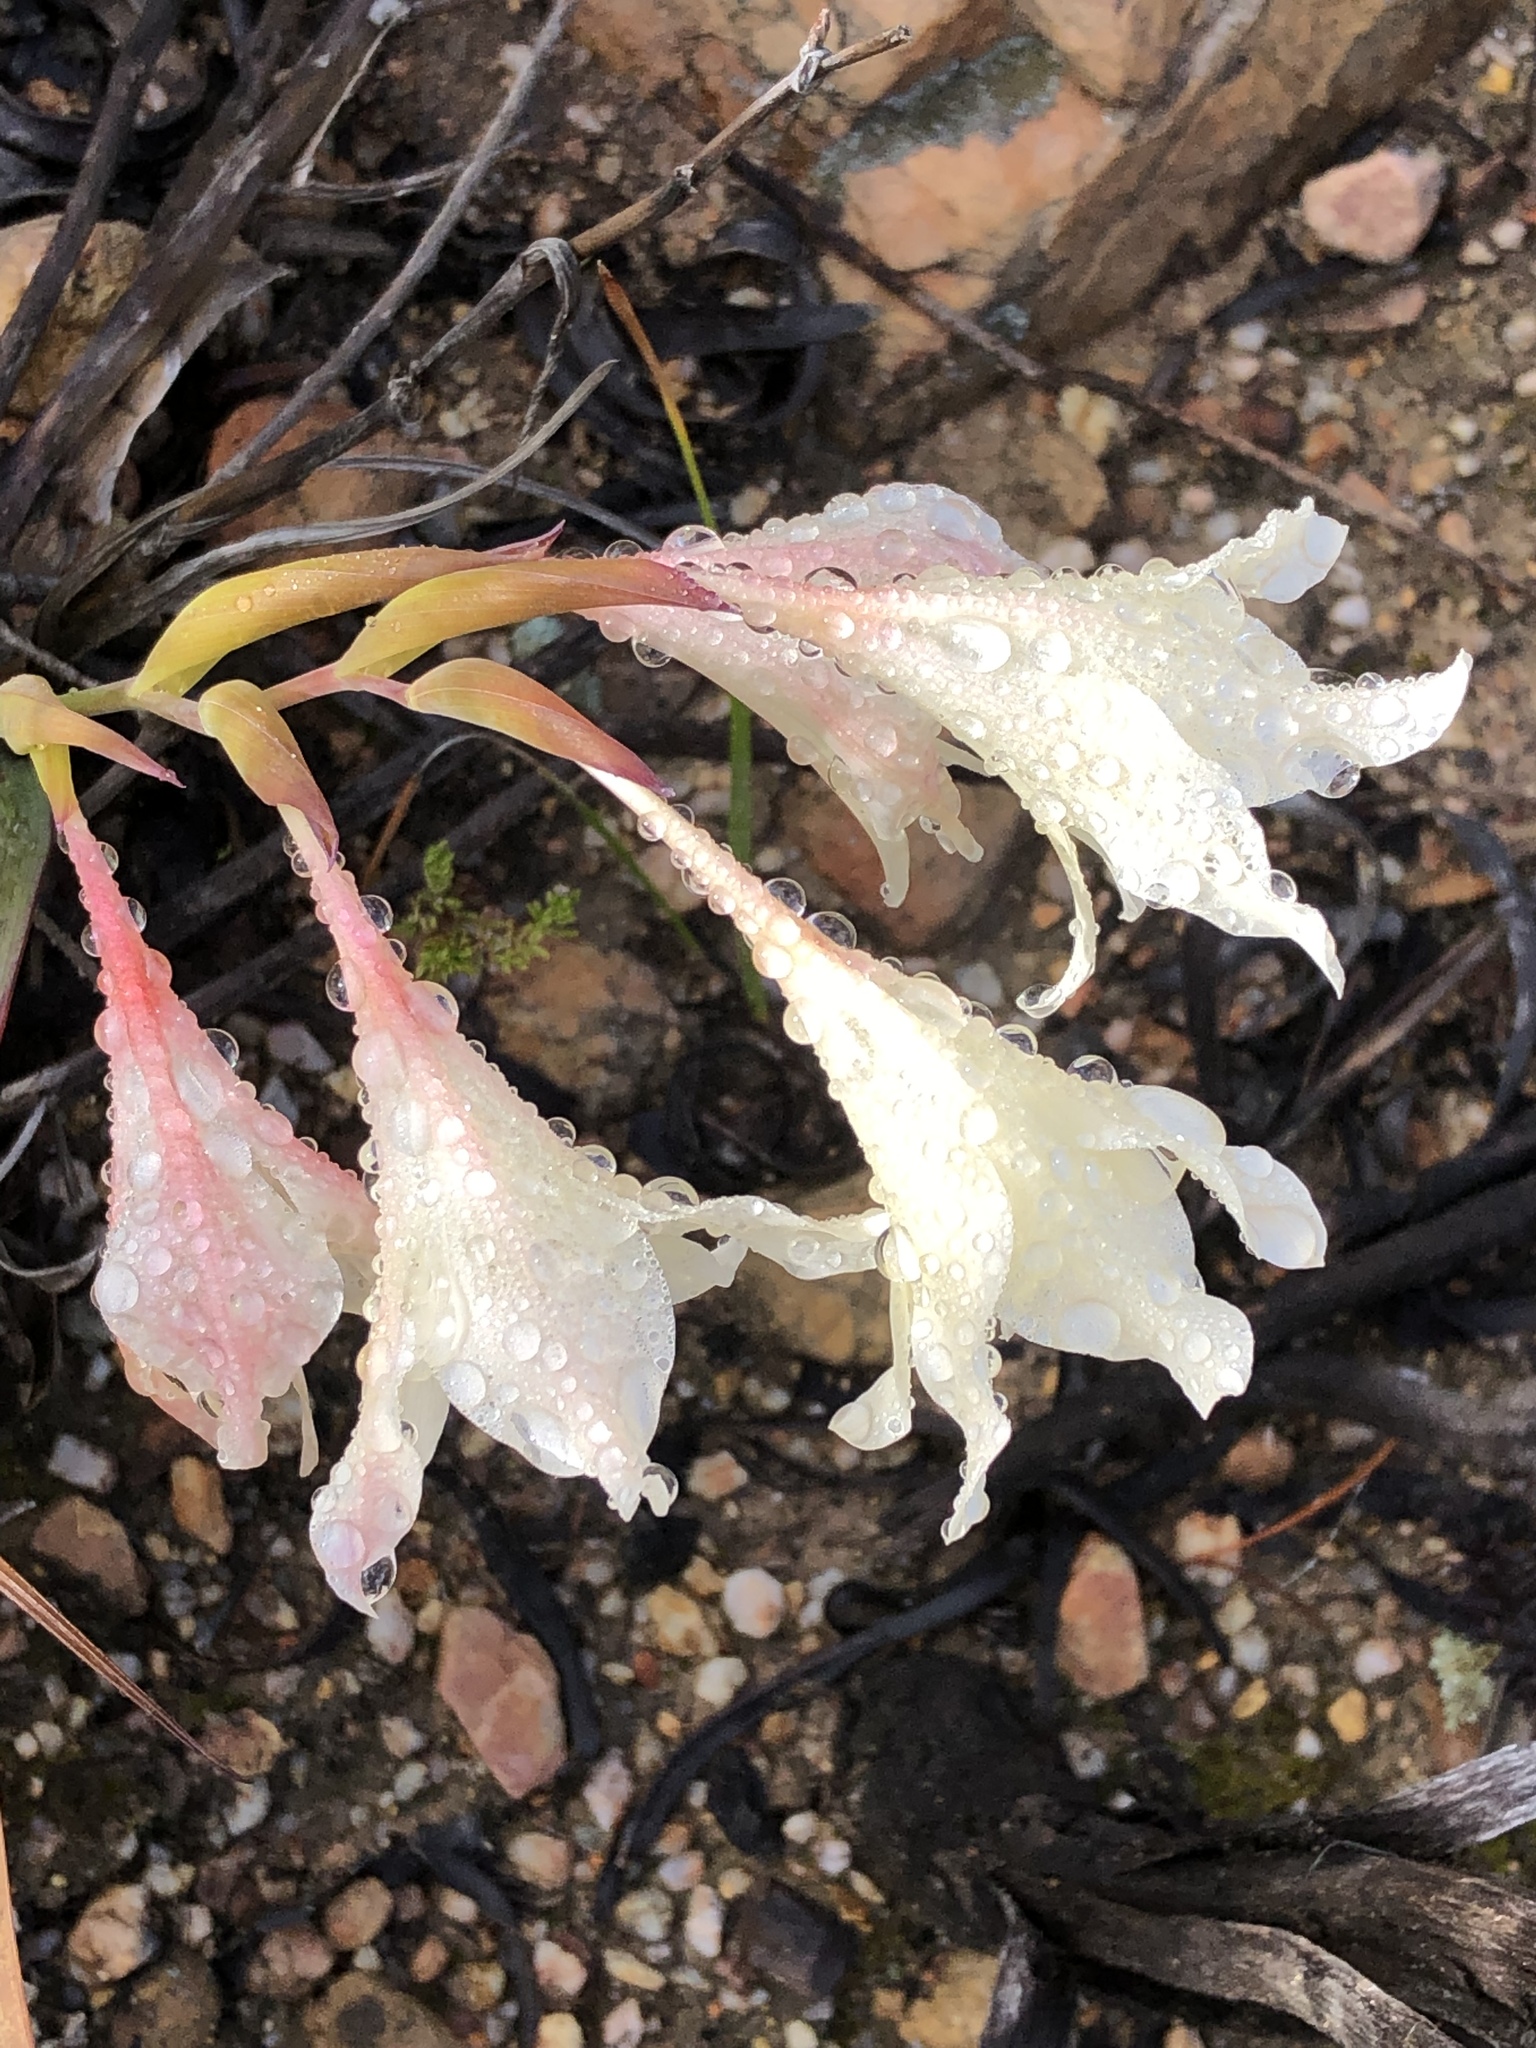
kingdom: Plantae
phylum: Tracheophyta
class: Liliopsida
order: Asparagales
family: Iridaceae
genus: Gladiolus
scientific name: Gladiolus carneus
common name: Painted-lady
